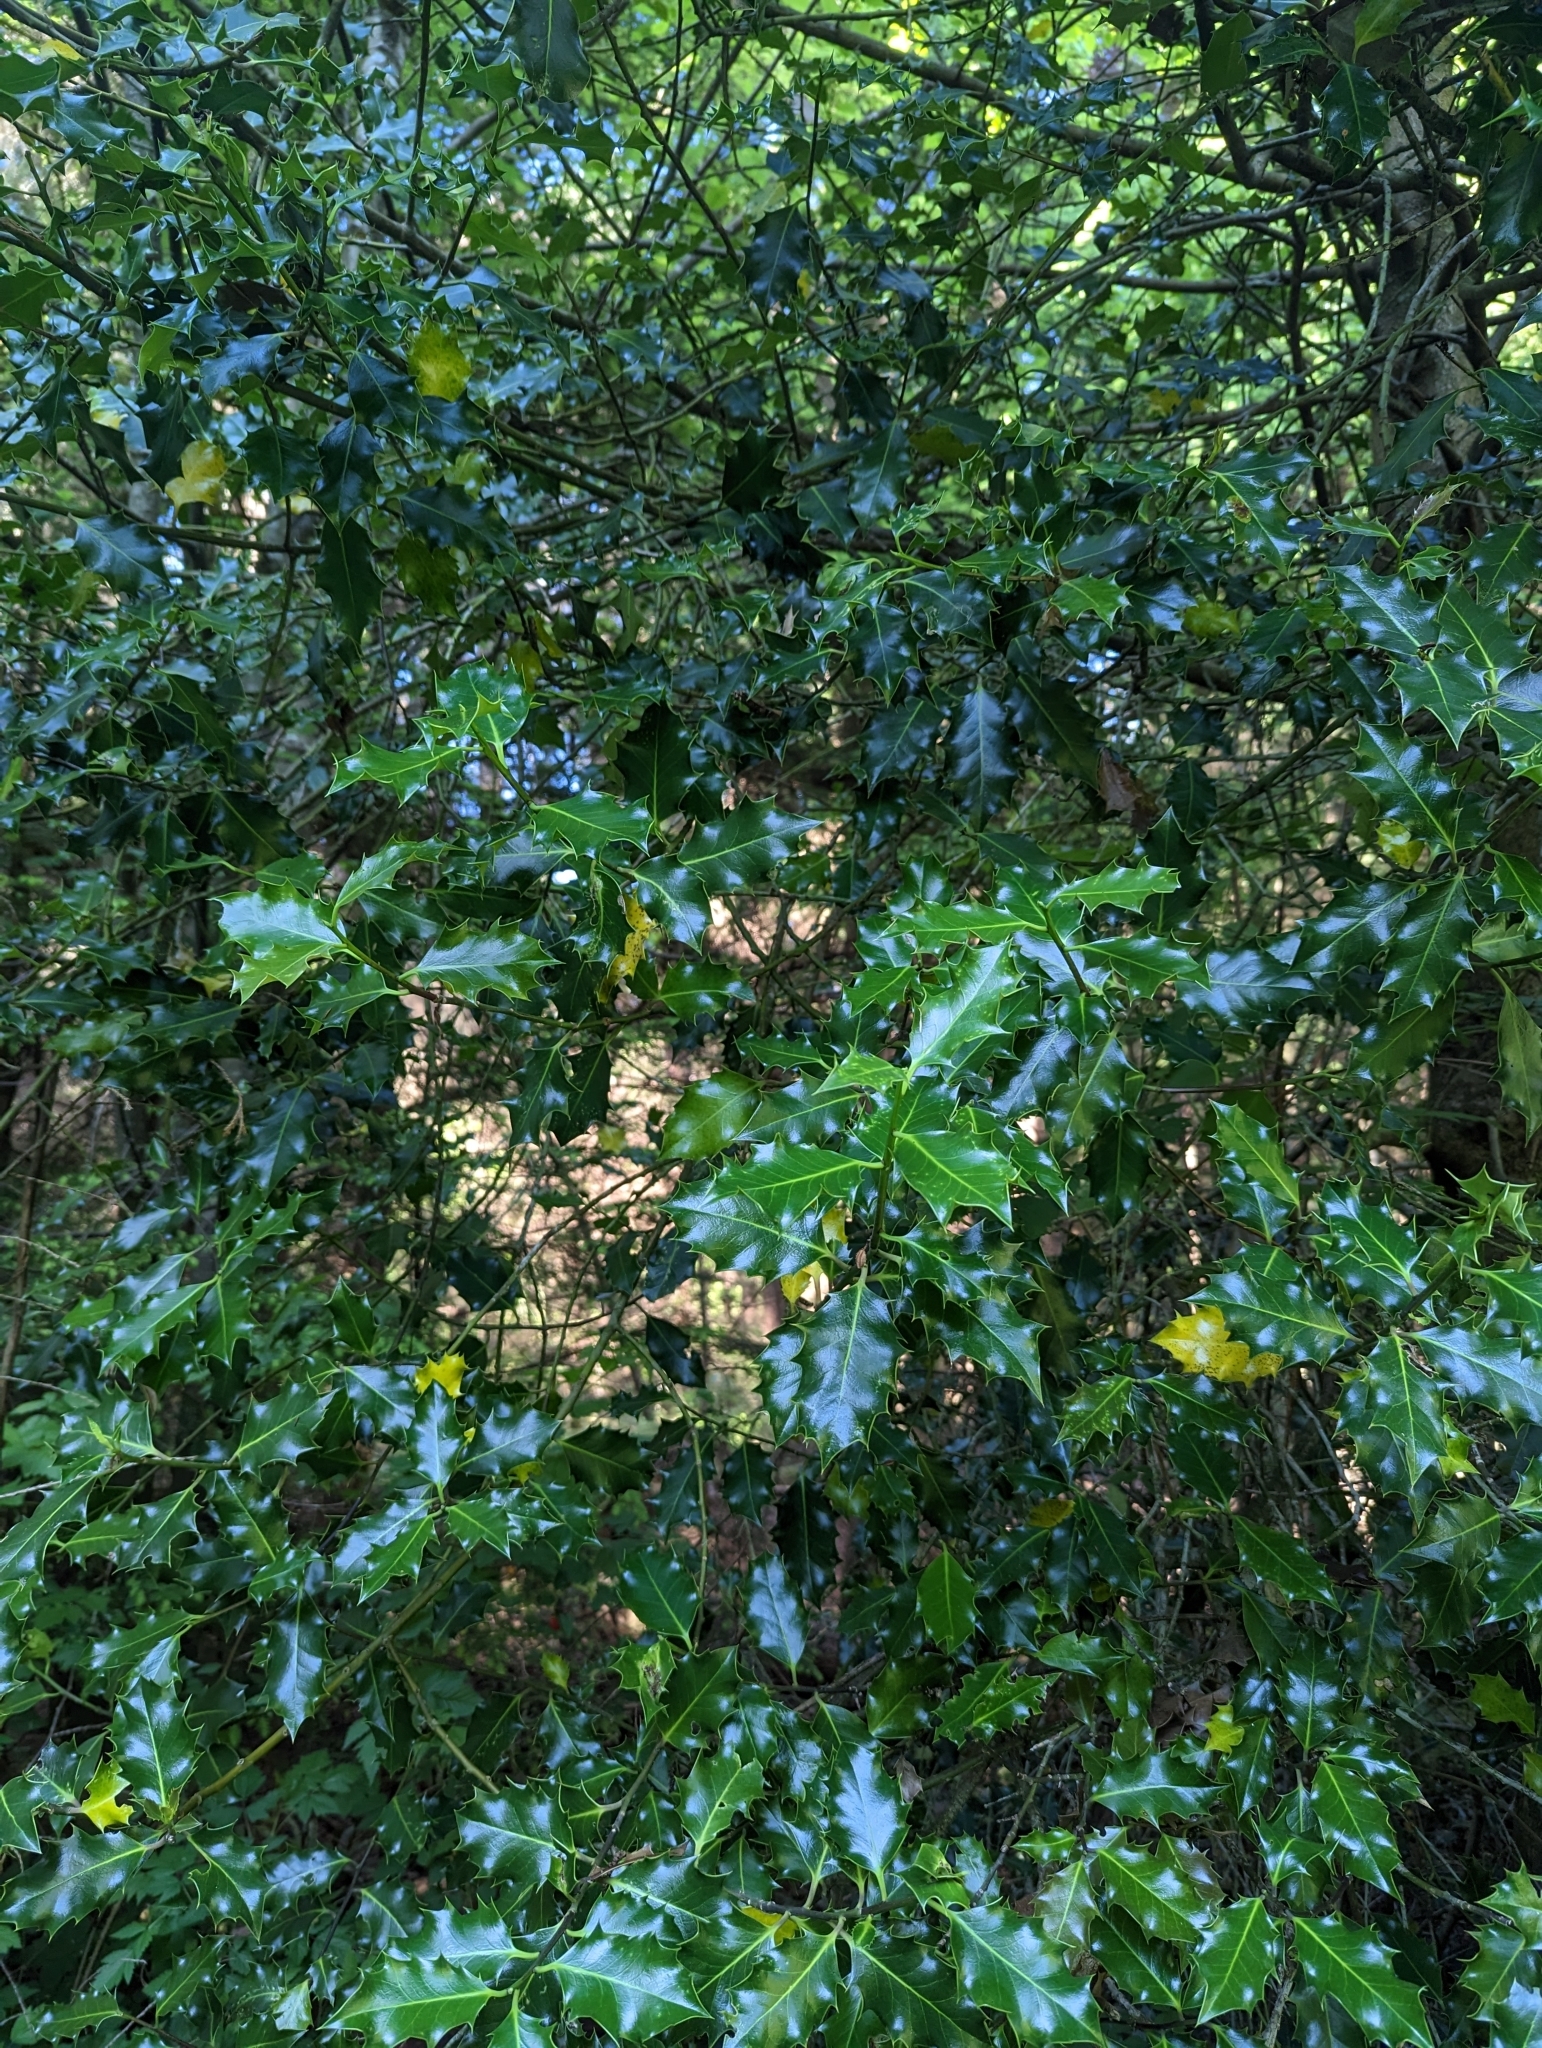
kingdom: Plantae
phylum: Tracheophyta
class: Magnoliopsida
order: Aquifoliales
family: Aquifoliaceae
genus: Ilex
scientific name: Ilex aquifolium
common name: English holly
